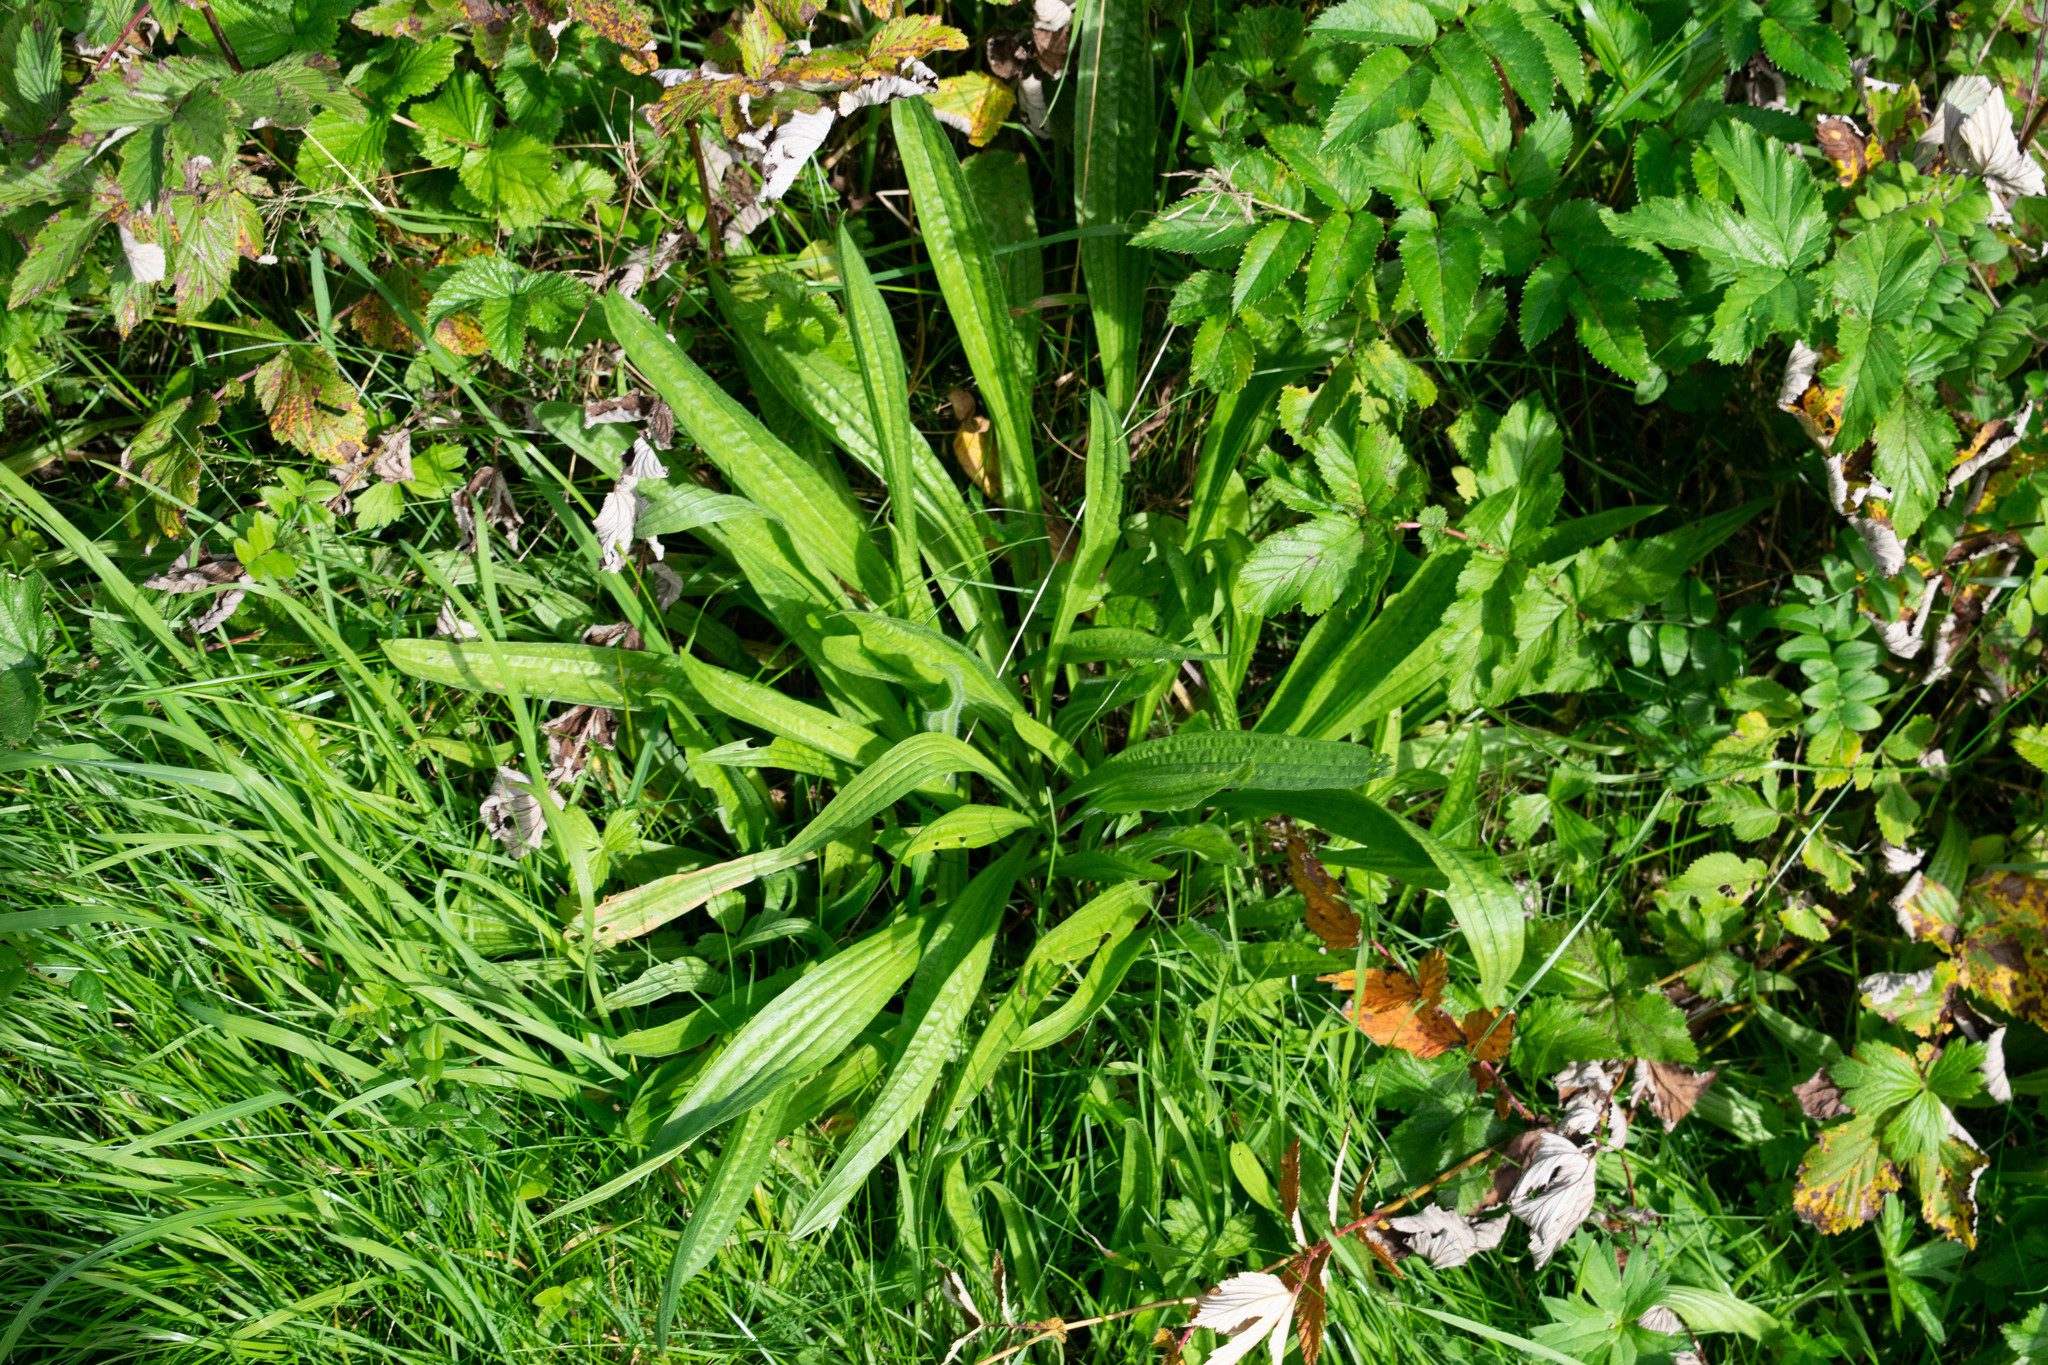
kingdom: Plantae
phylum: Tracheophyta
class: Magnoliopsida
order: Lamiales
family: Plantaginaceae
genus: Plantago
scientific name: Plantago lanceolata
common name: Ribwort plantain
